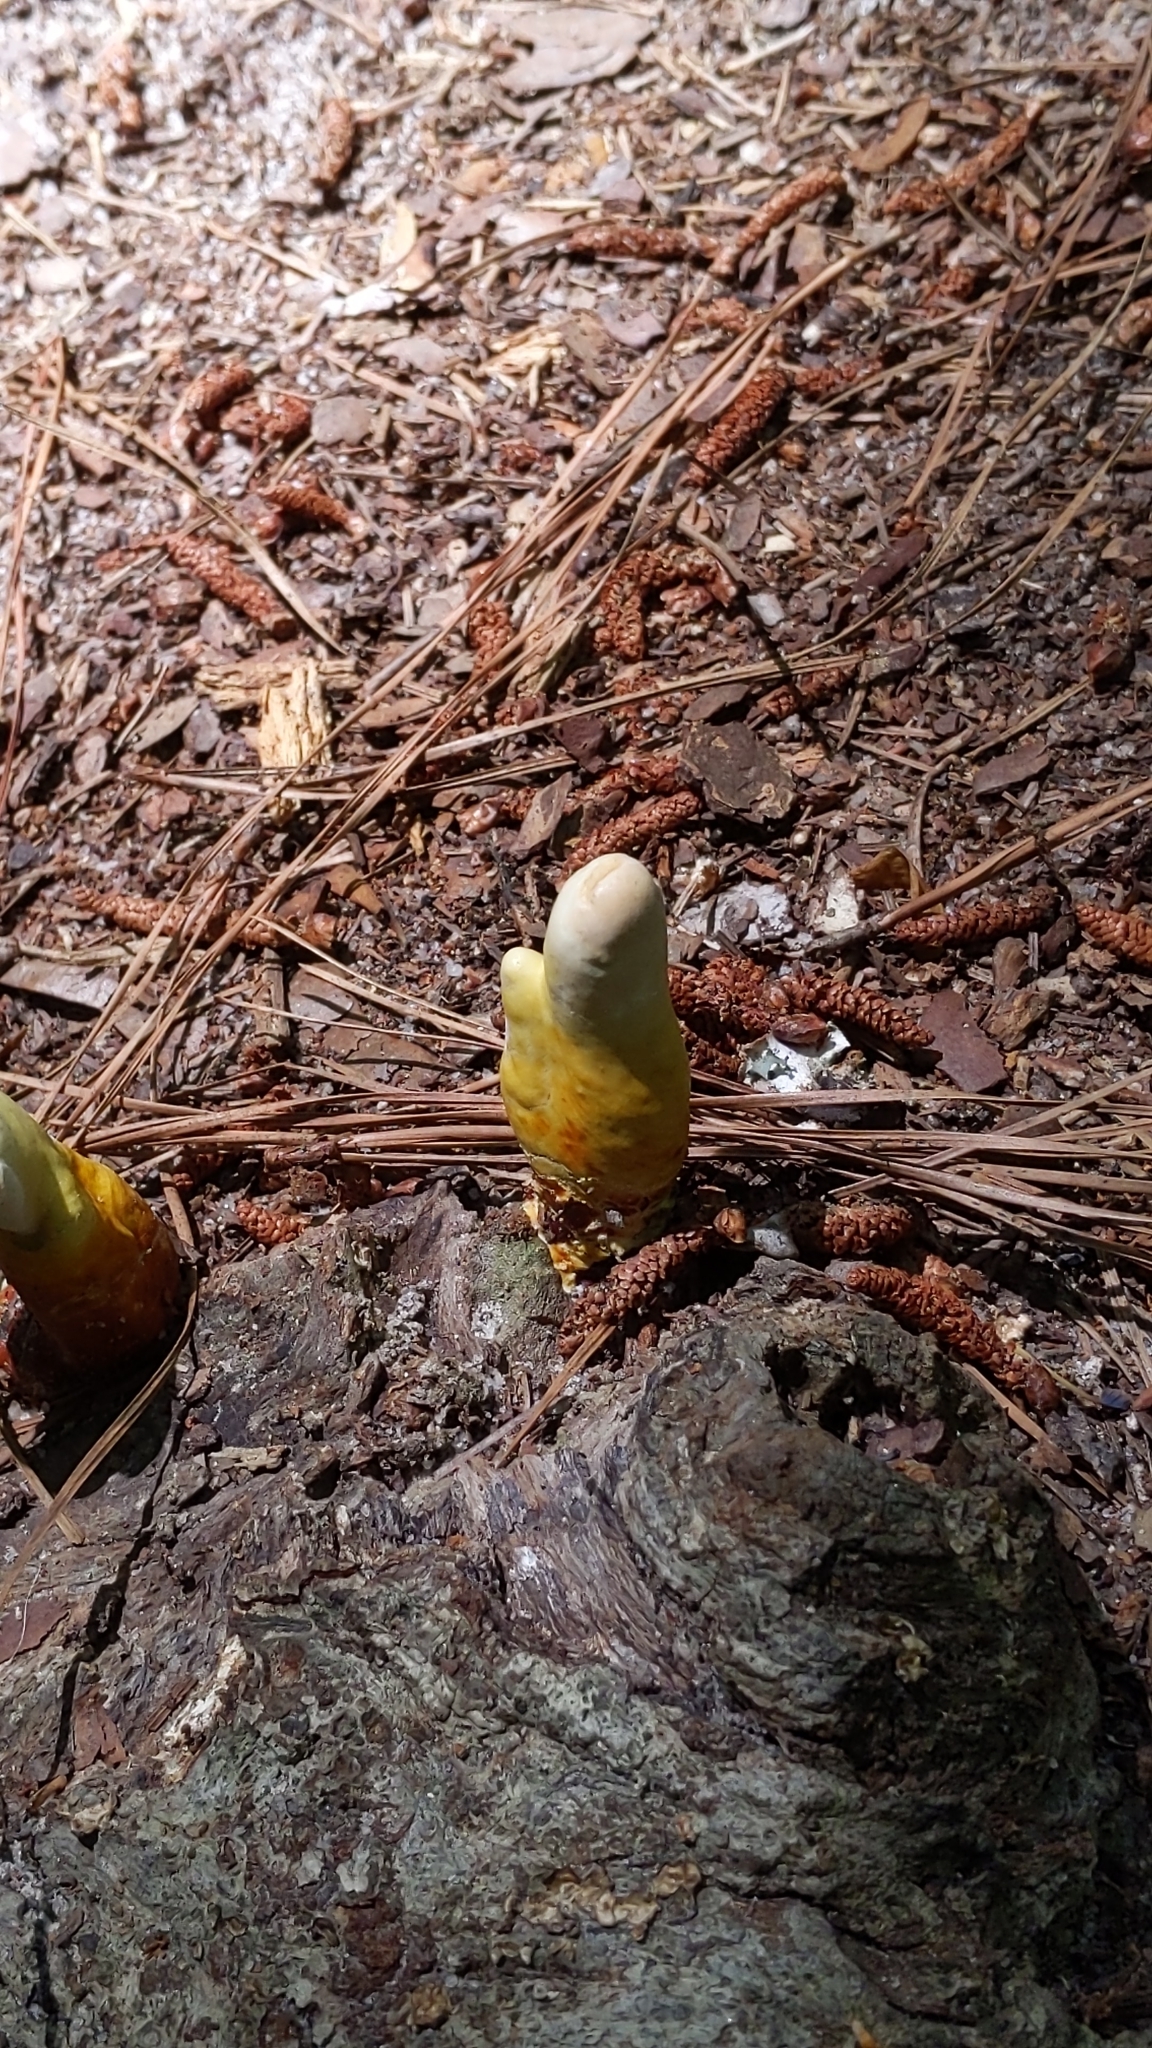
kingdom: Fungi
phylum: Basidiomycota
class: Agaricomycetes
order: Polyporales
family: Polyporaceae
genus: Ganoderma
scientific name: Ganoderma curtisii
